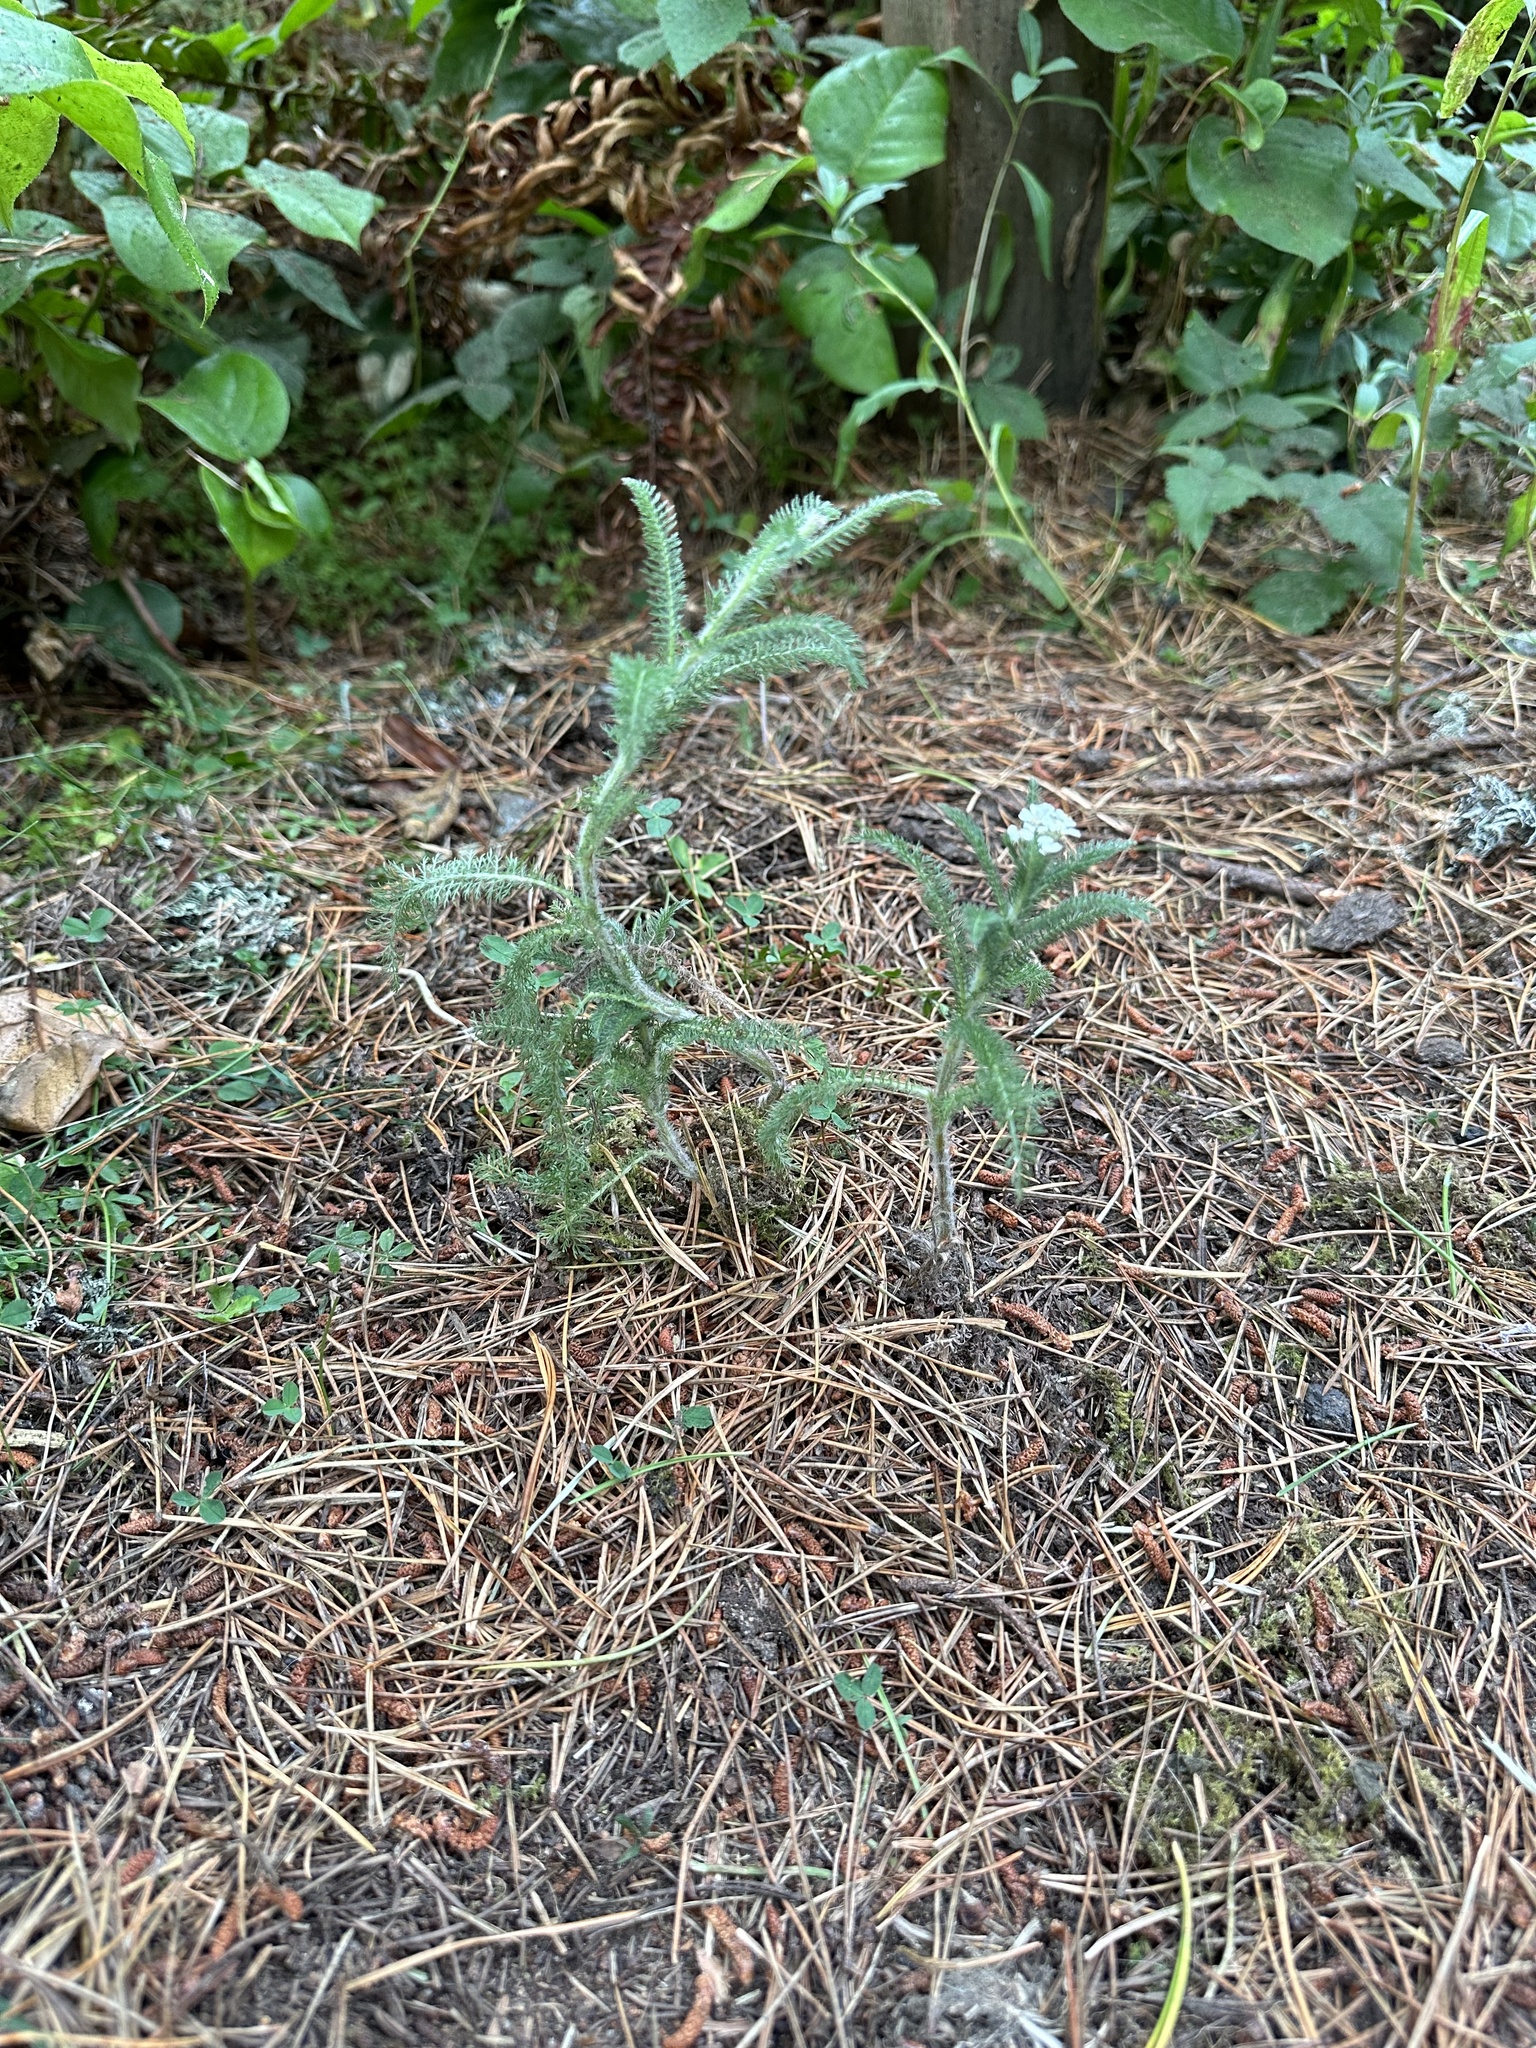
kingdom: Plantae
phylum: Tracheophyta
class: Magnoliopsida
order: Asterales
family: Asteraceae
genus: Achillea
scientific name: Achillea millefolium
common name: Yarrow
